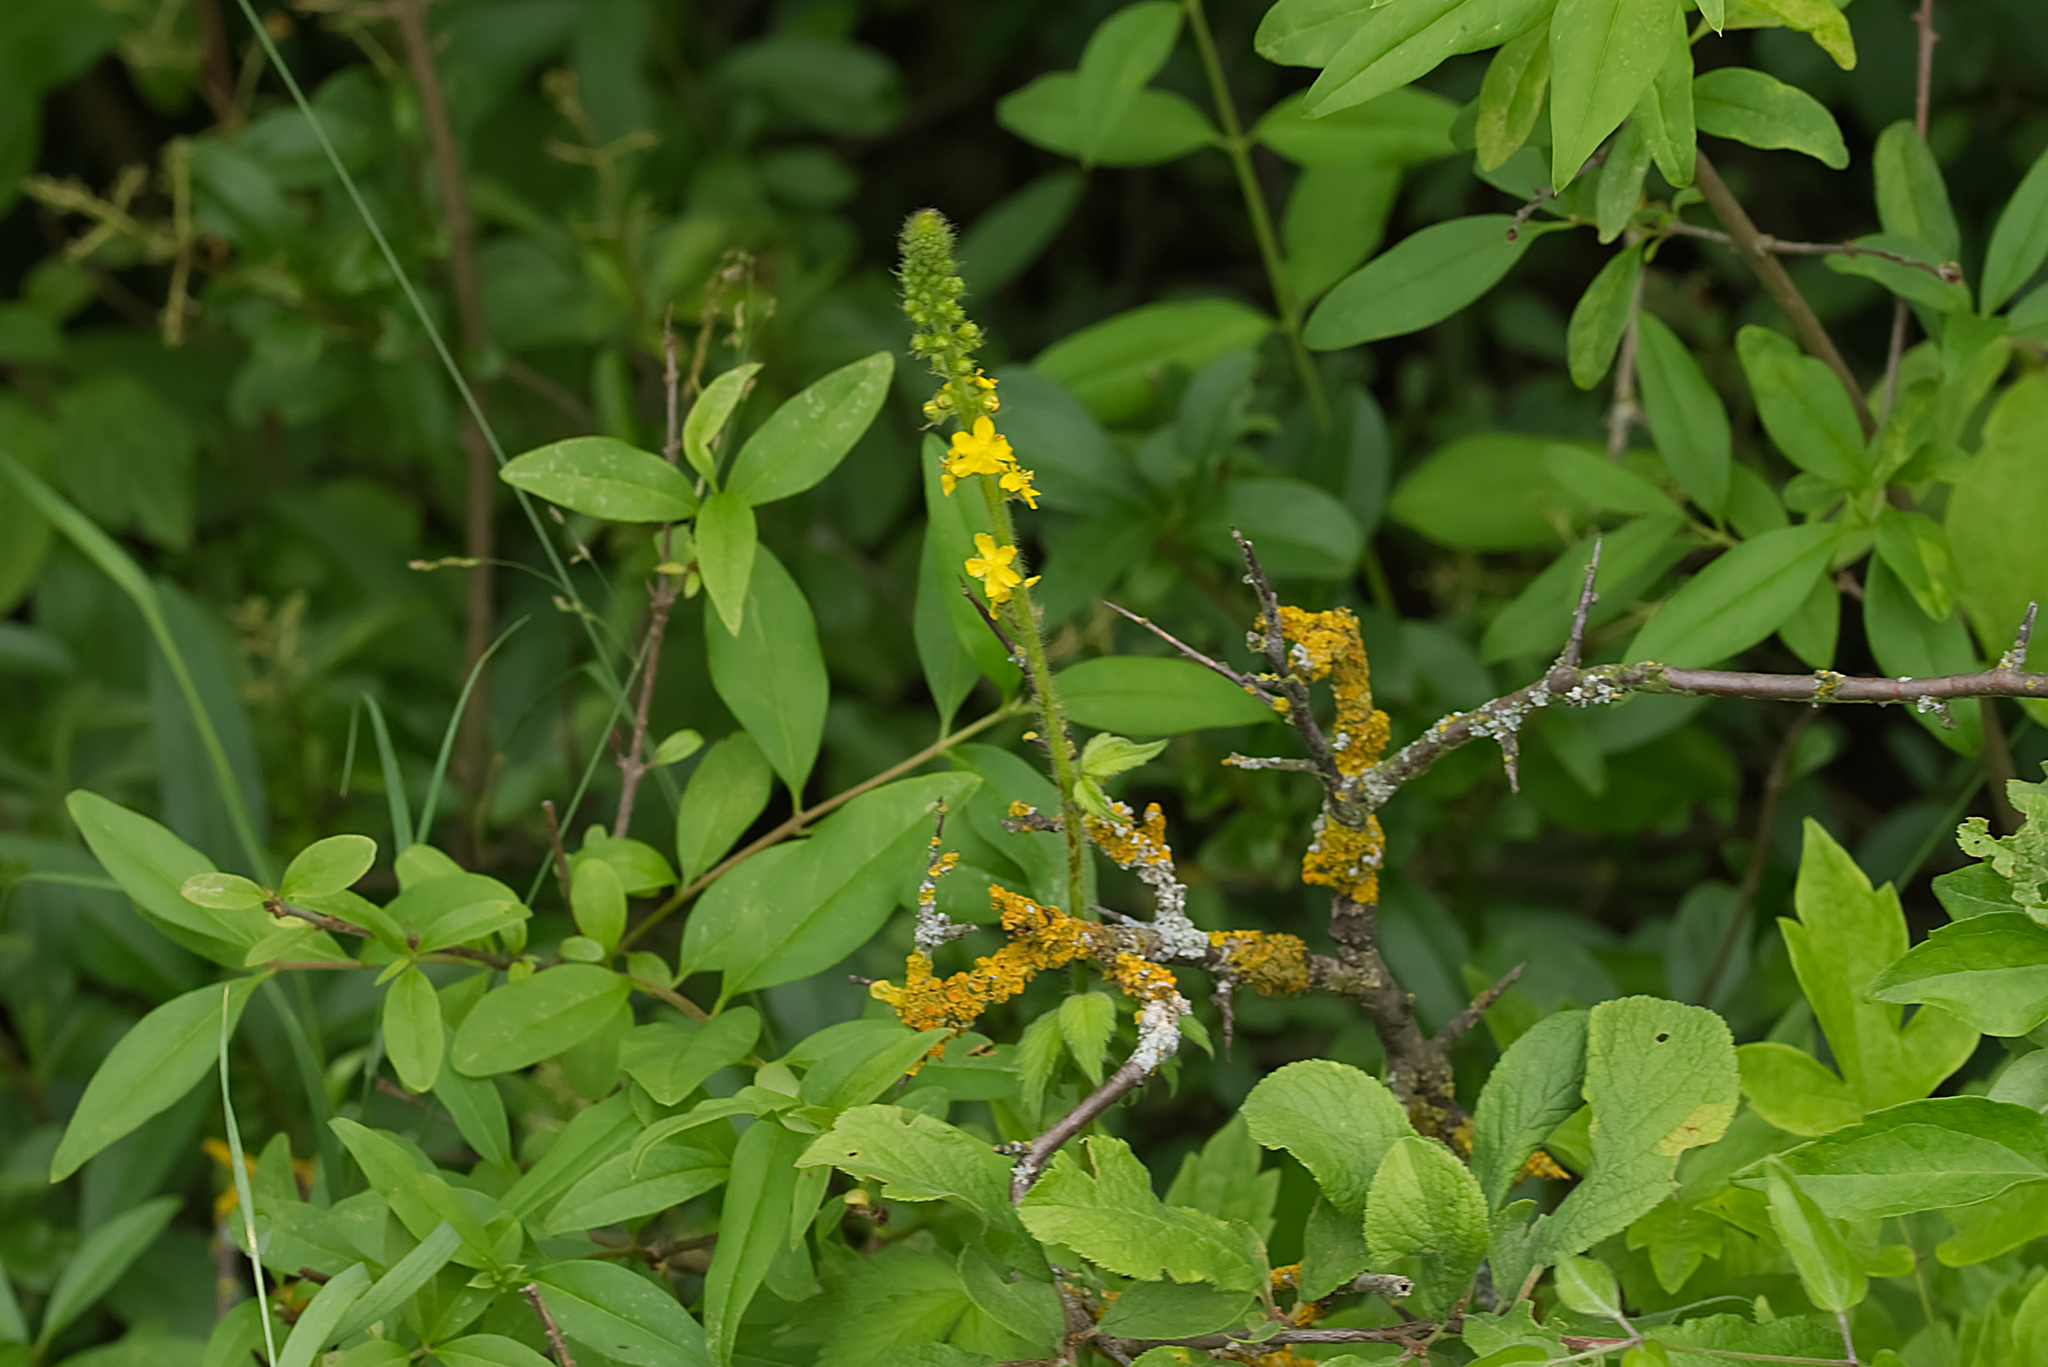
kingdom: Plantae
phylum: Tracheophyta
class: Magnoliopsida
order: Rosales
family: Rosaceae
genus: Agrimonia
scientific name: Agrimonia eupatoria
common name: Agrimony
